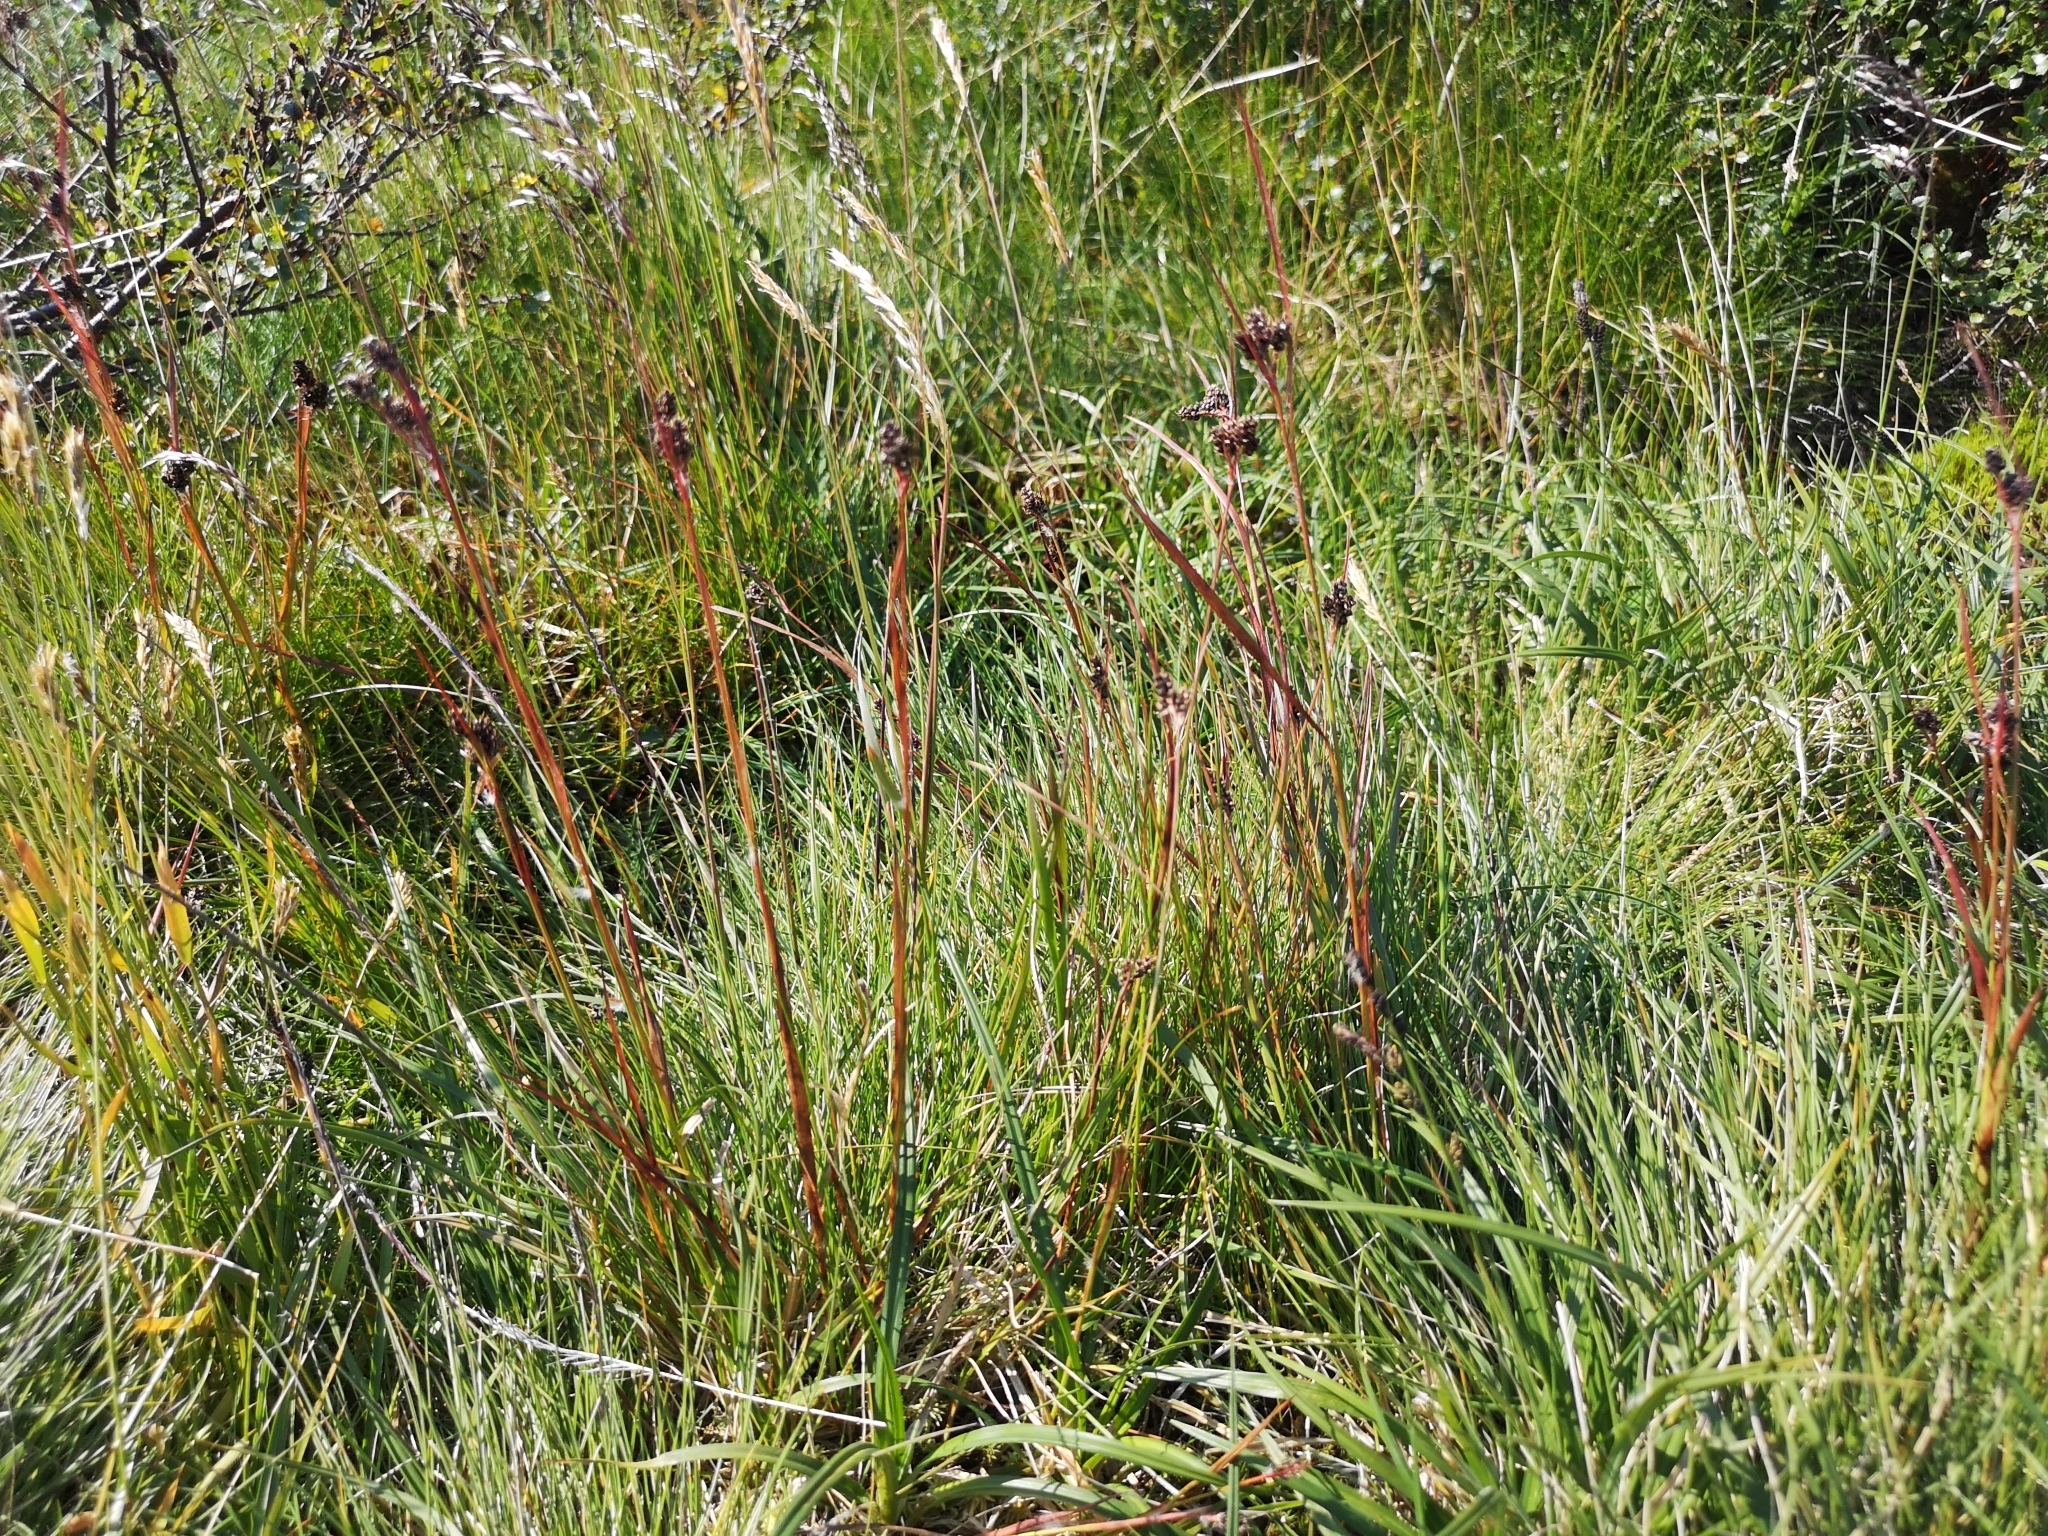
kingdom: Plantae
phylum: Tracheophyta
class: Liliopsida
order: Poales
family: Juncaceae
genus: Luzula
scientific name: Luzula multiflora
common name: Heath wood-rush
